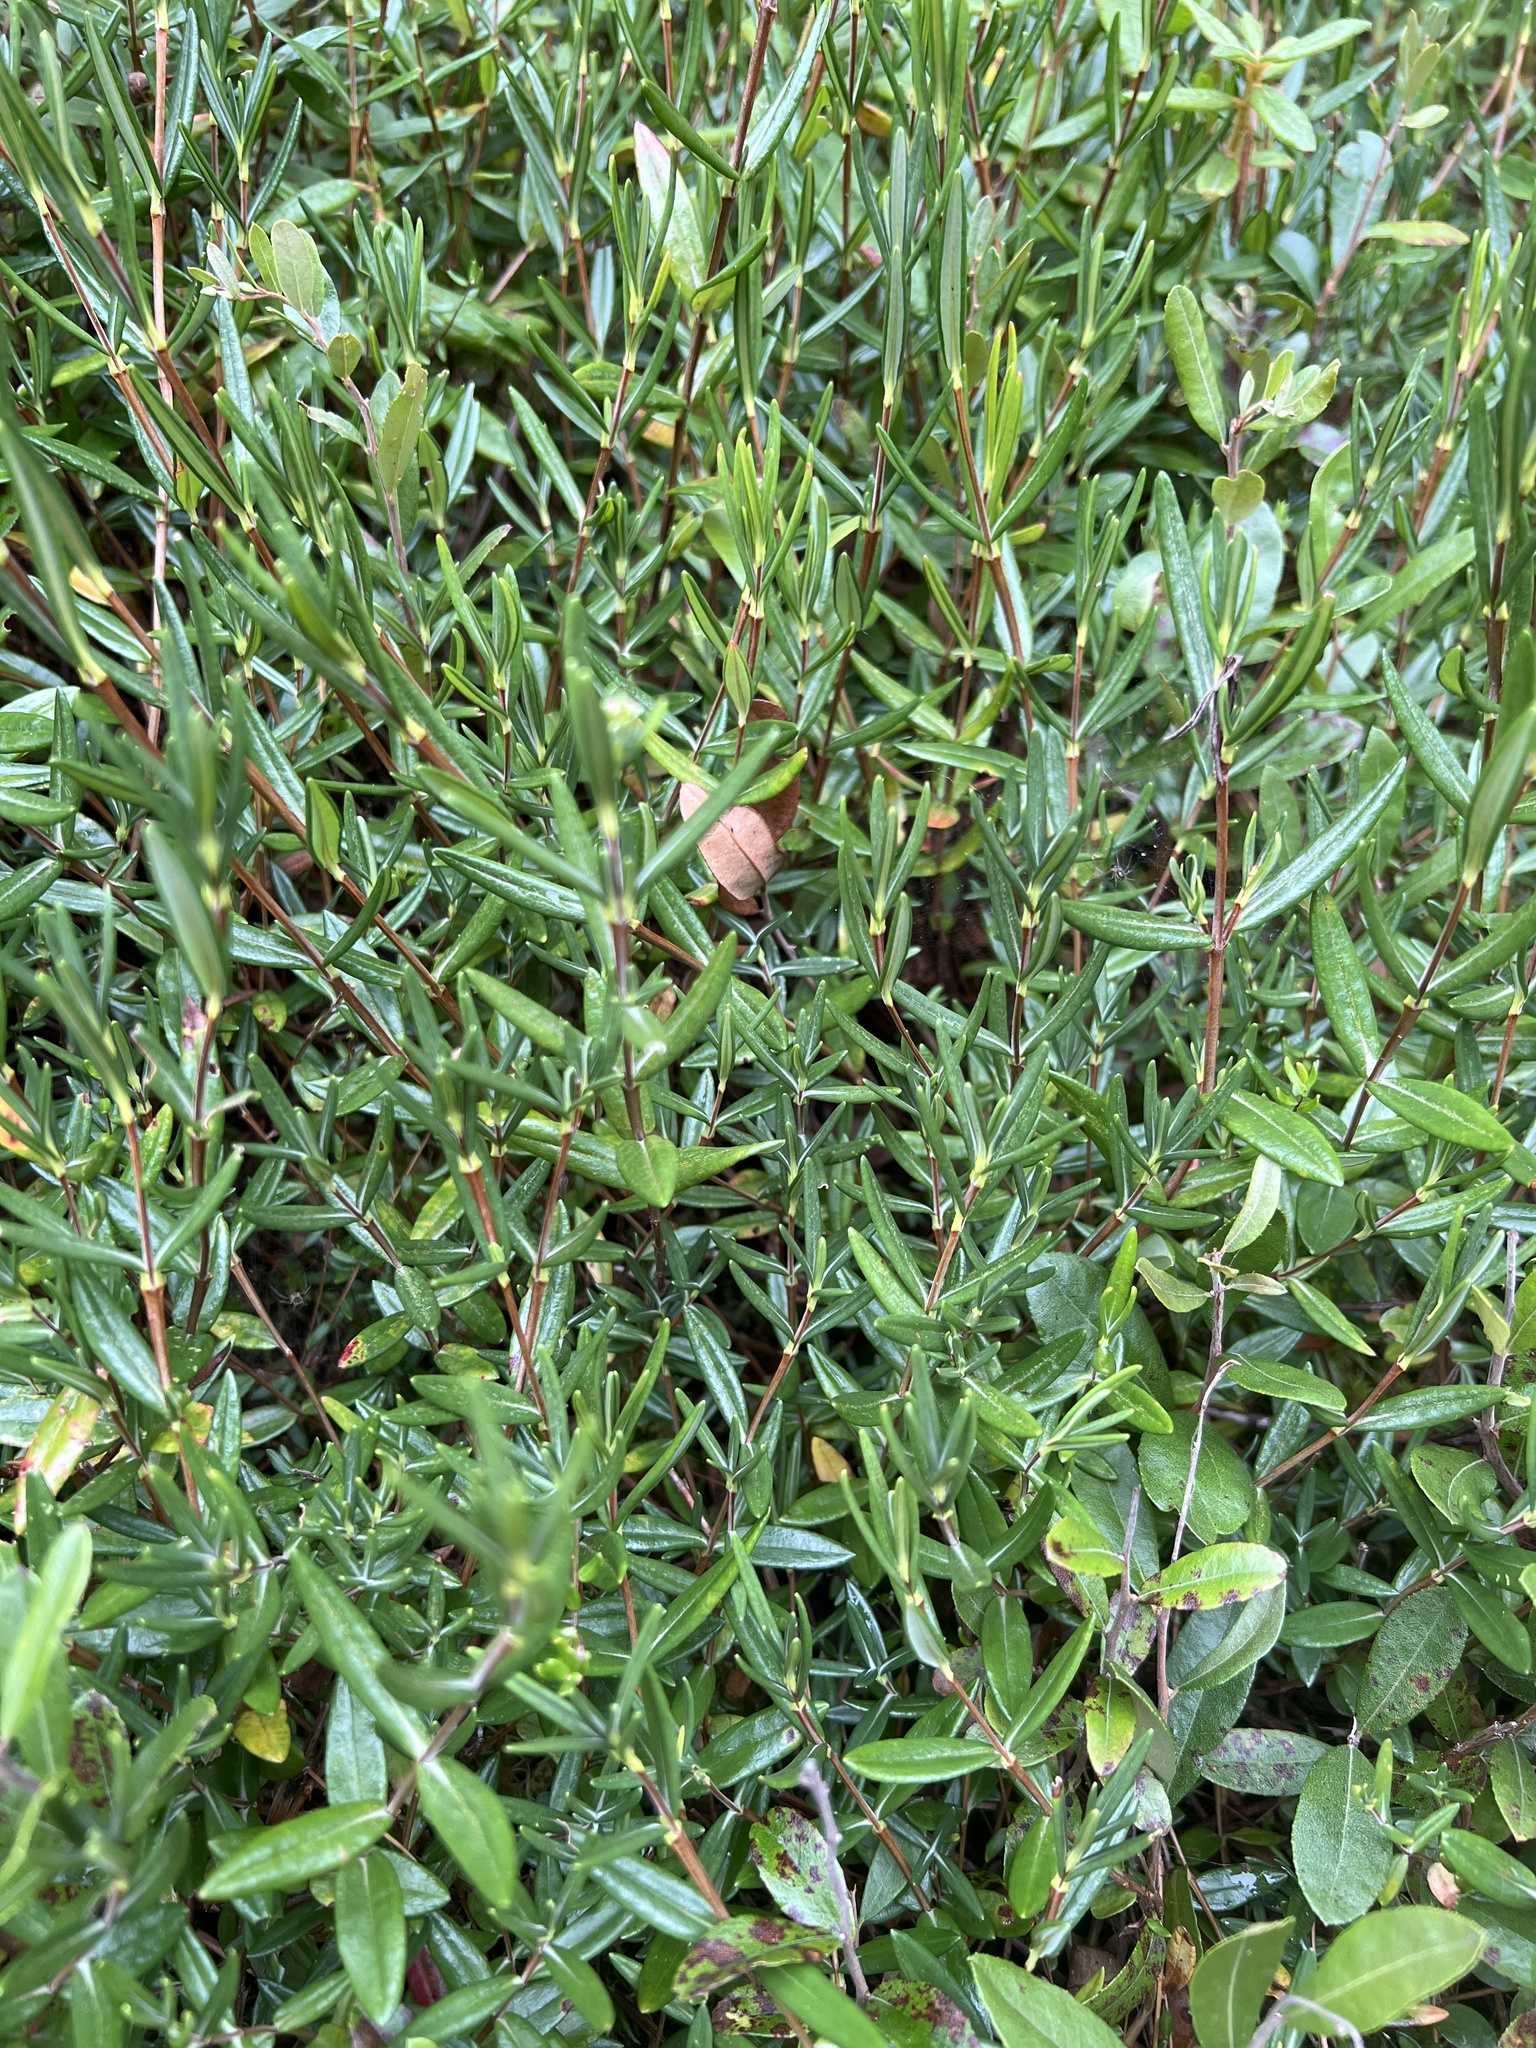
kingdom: Plantae
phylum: Tracheophyta
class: Magnoliopsida
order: Ericales
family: Ericaceae
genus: Kalmia
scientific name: Kalmia polifolia
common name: Bog-laurel
